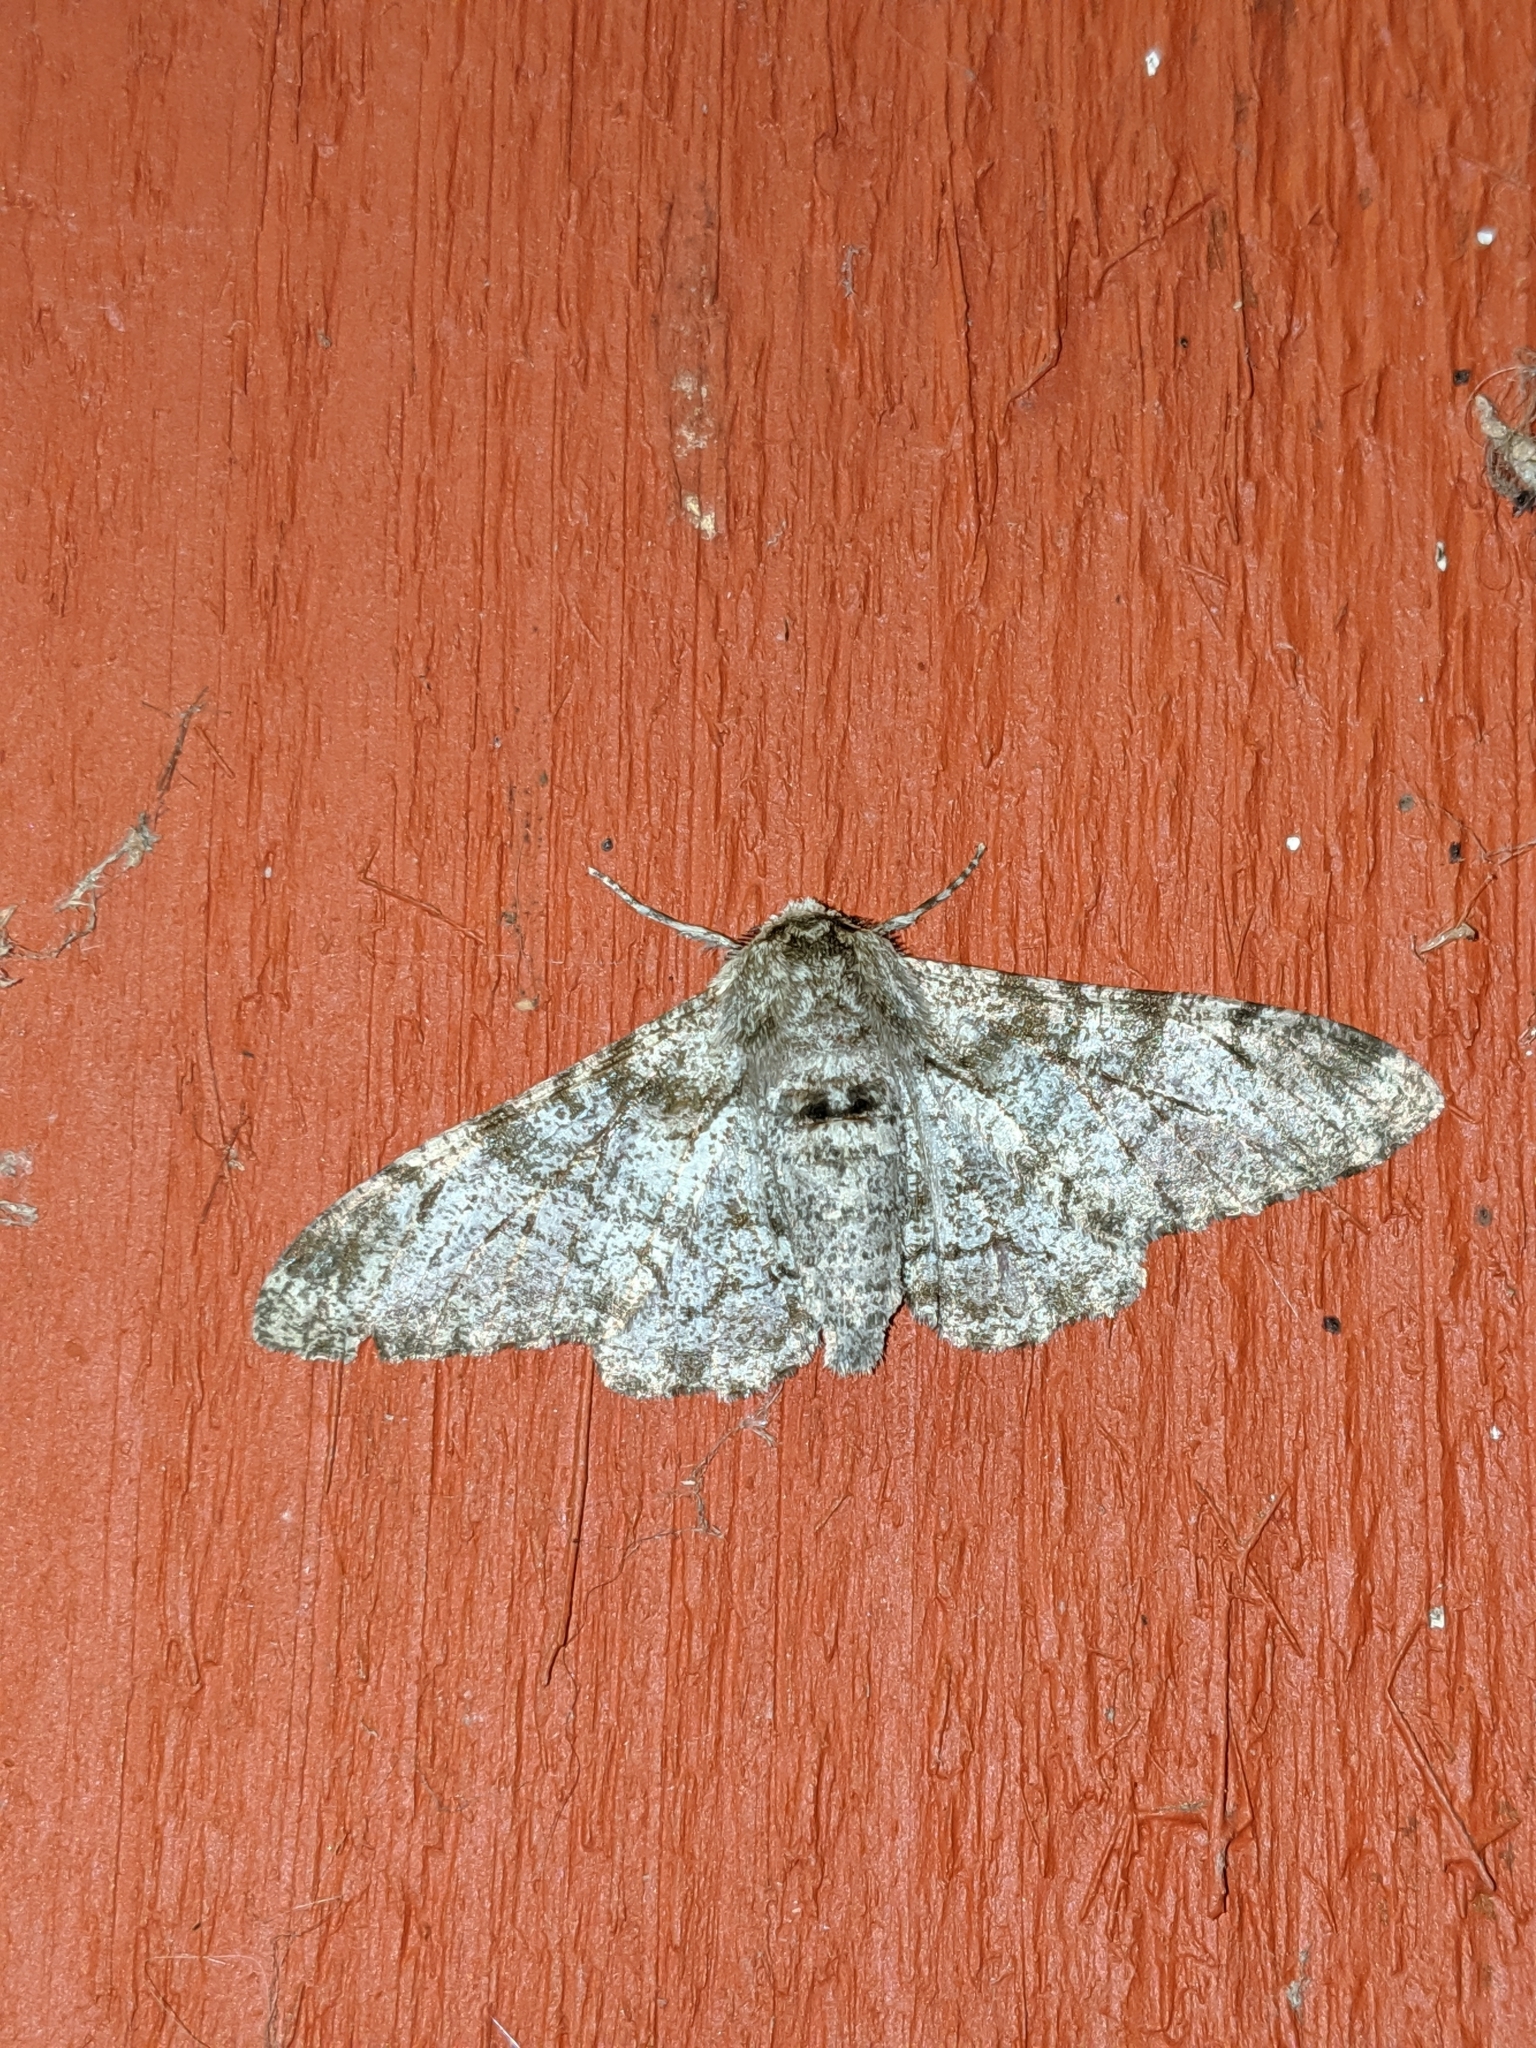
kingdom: Animalia
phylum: Arthropoda
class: Insecta
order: Lepidoptera
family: Geometridae
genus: Biston
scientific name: Biston betularia
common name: Peppered moth
